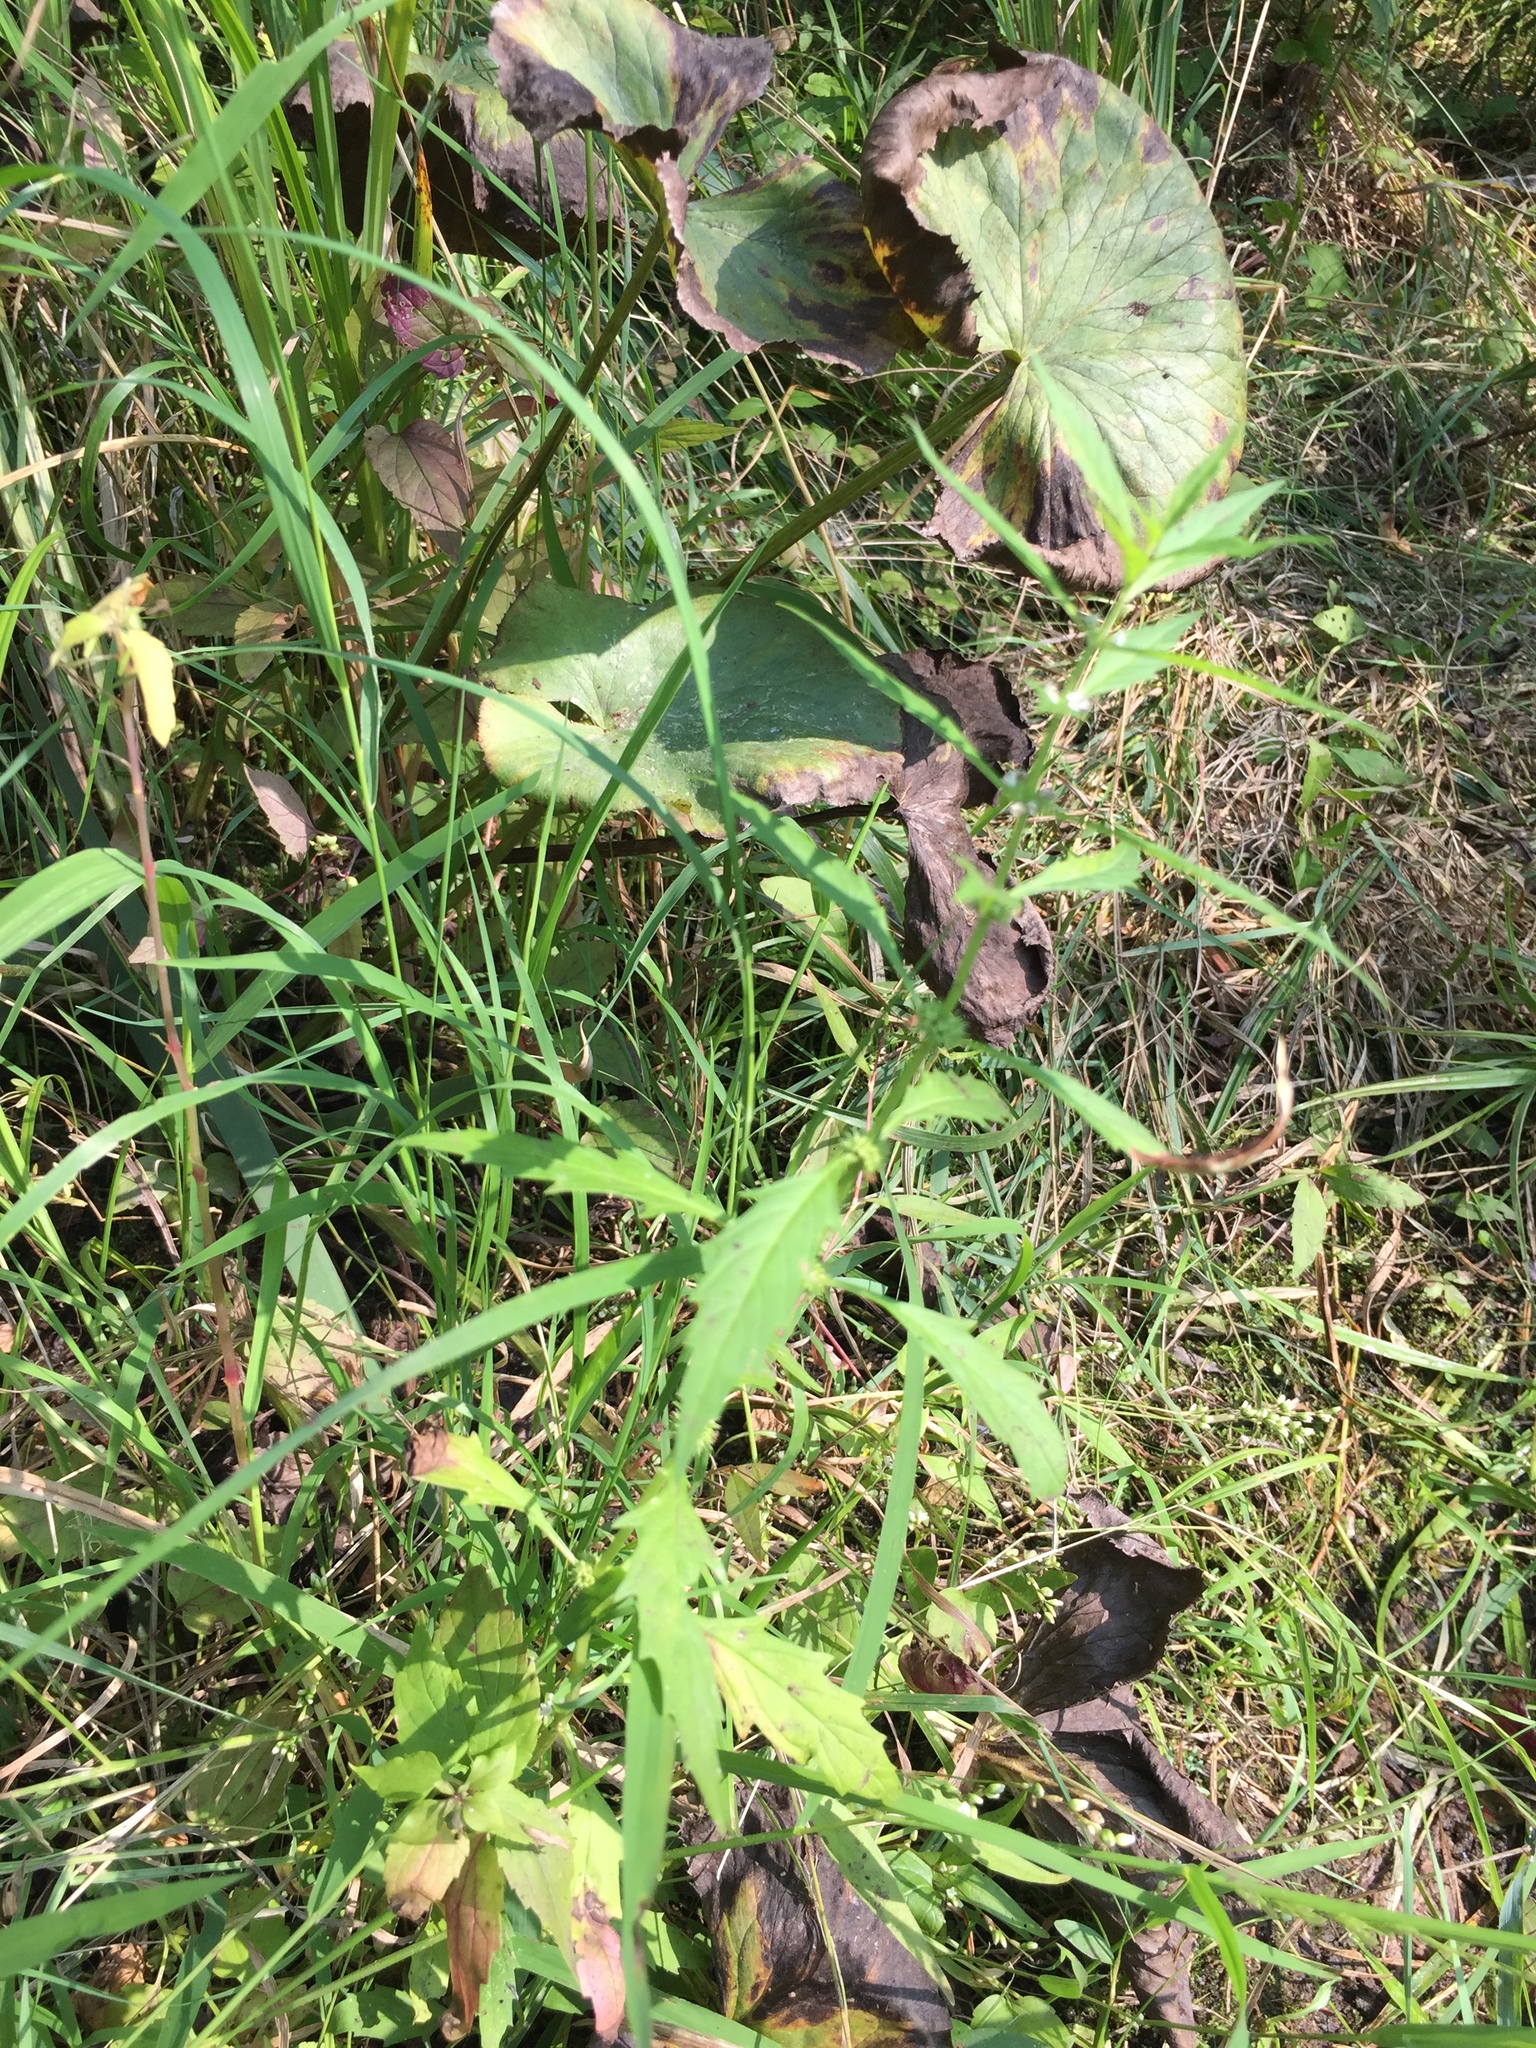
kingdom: Plantae
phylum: Tracheophyta
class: Magnoliopsida
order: Lamiales
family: Lamiaceae
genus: Lycopus
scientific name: Lycopus americanus
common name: American bugleweed
